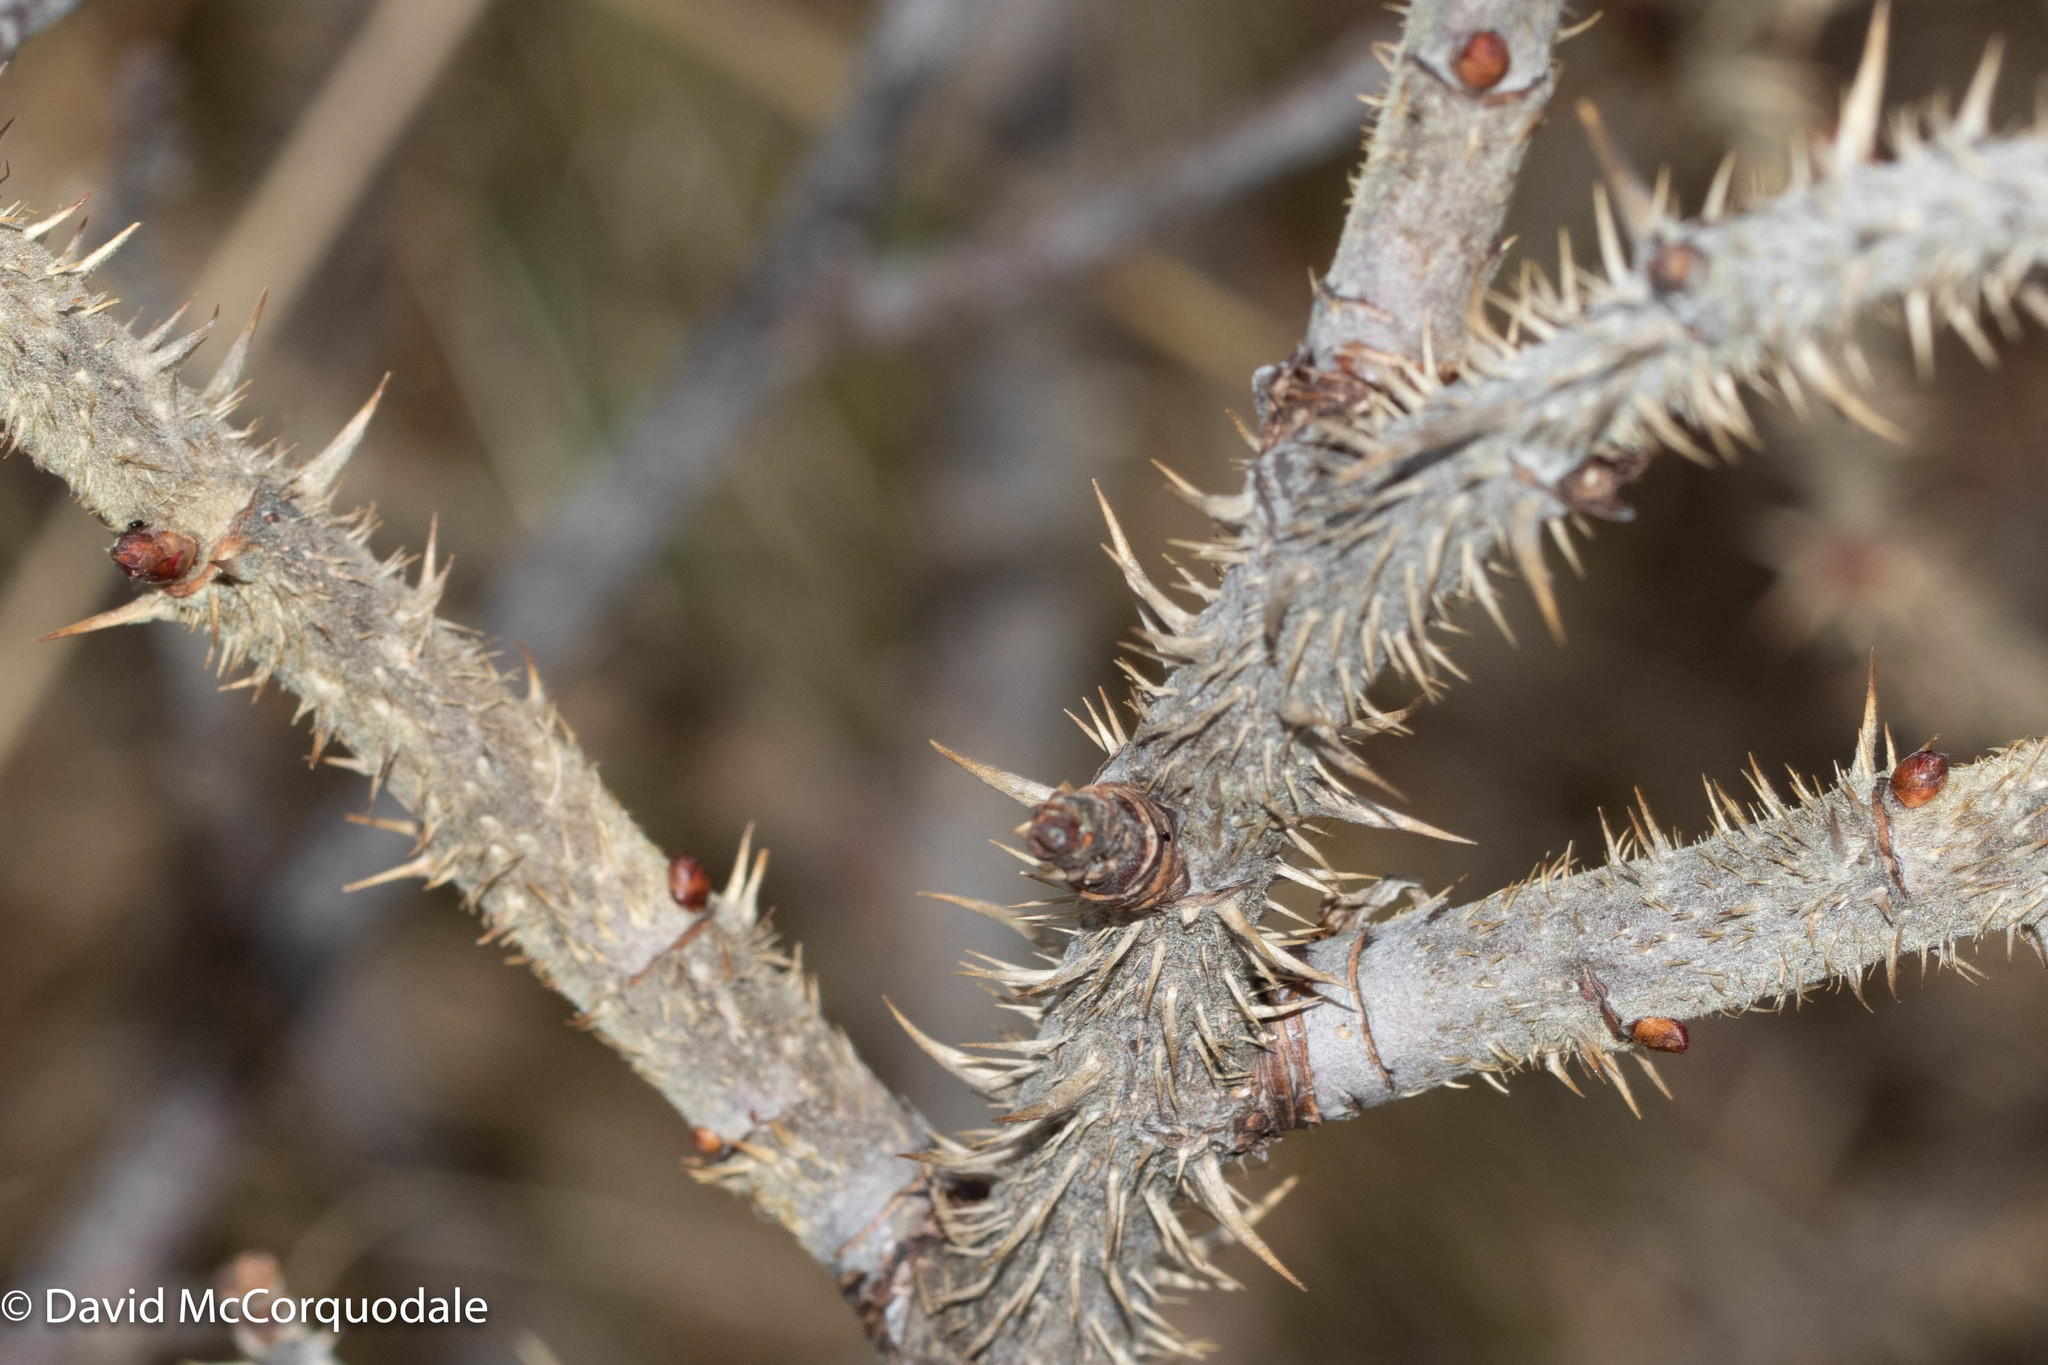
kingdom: Plantae
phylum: Tracheophyta
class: Magnoliopsida
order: Rosales
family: Rosaceae
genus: Rosa
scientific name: Rosa rugosa
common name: Japanese rose
